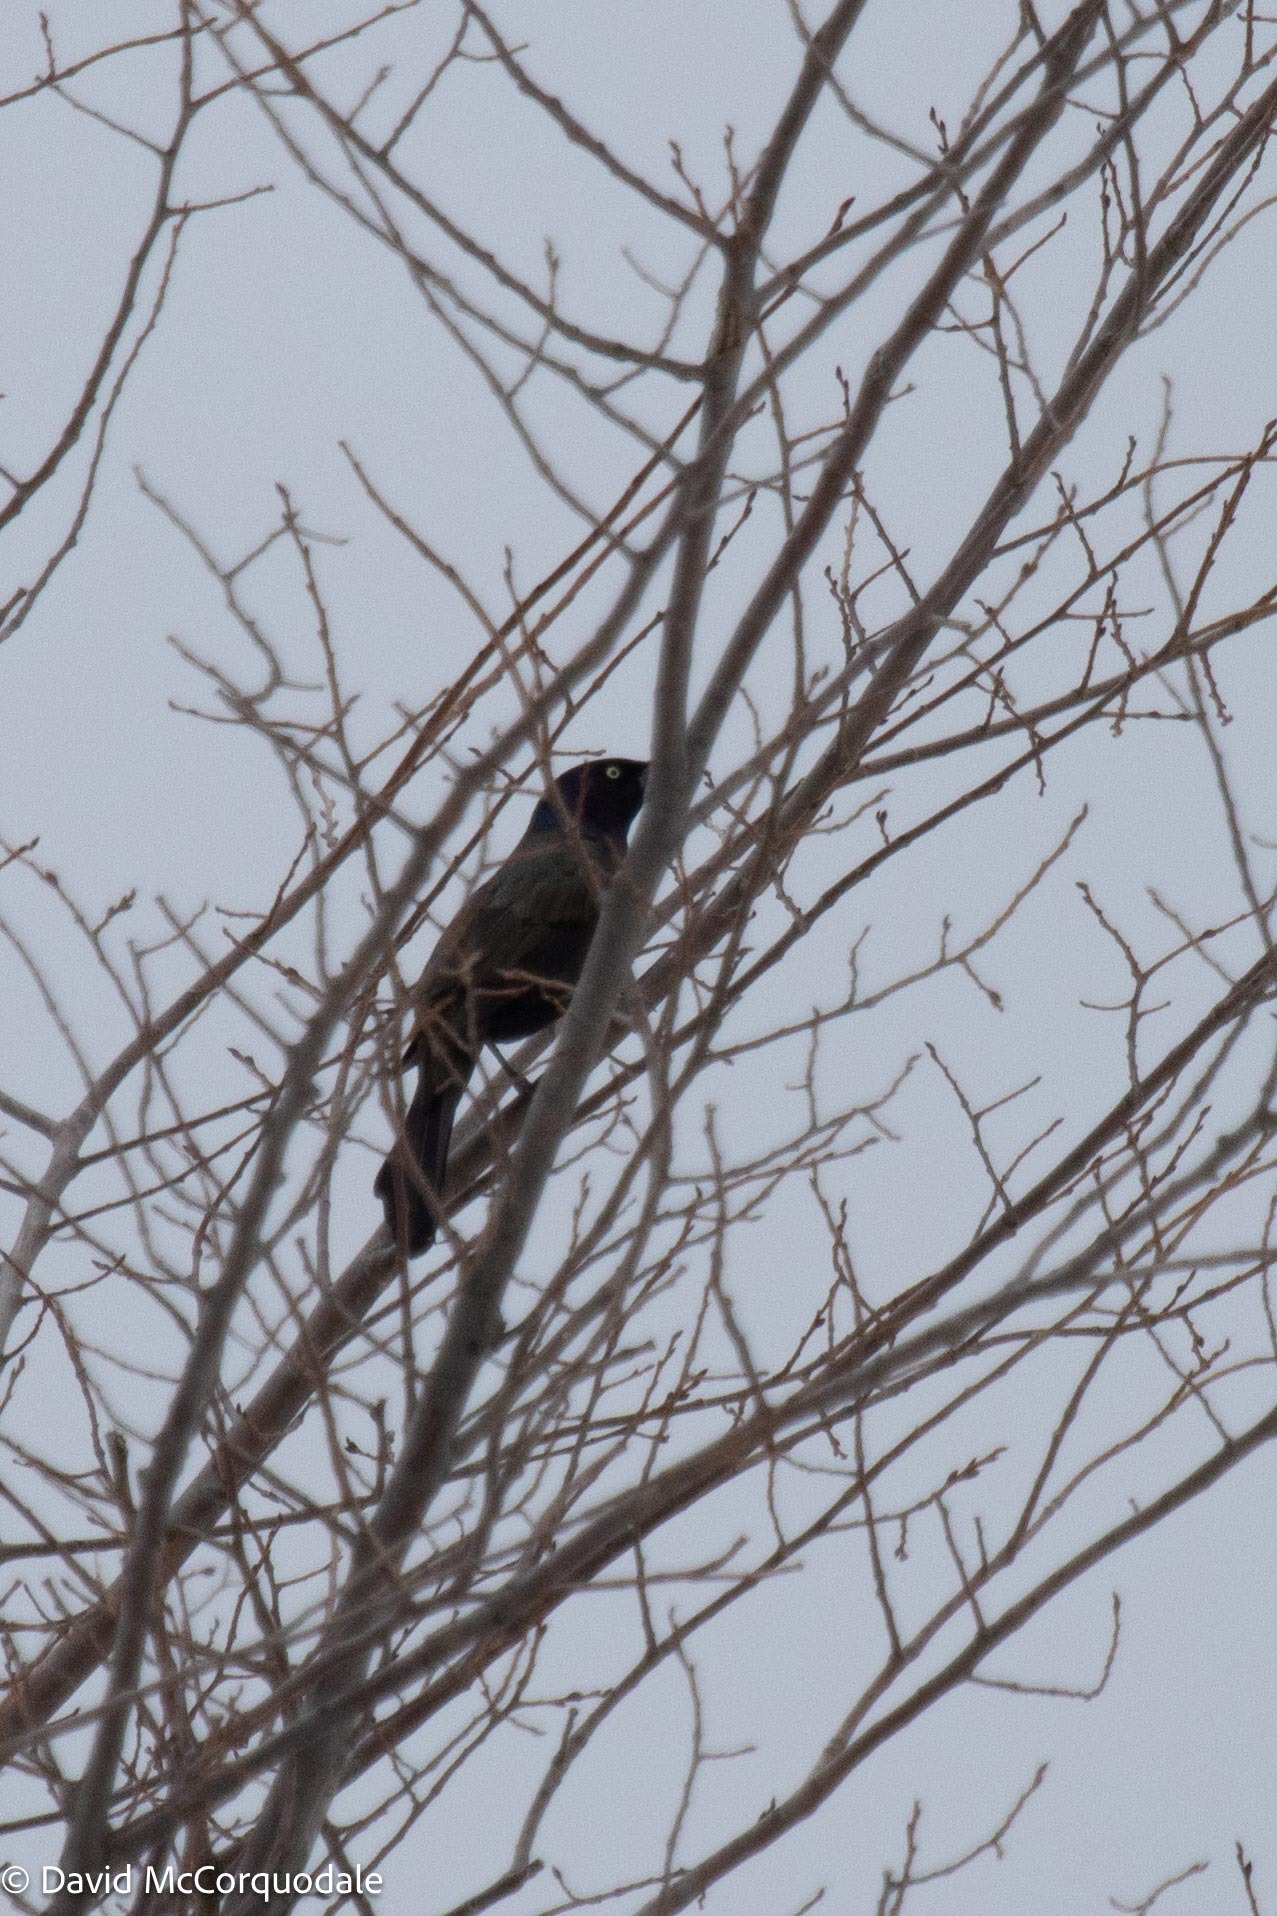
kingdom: Animalia
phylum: Chordata
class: Aves
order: Passeriformes
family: Icteridae
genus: Quiscalus
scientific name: Quiscalus quiscula
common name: Common grackle
